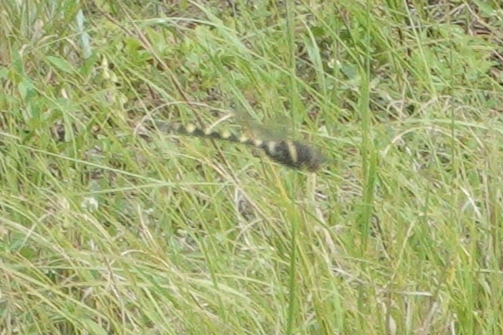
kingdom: Animalia
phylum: Arthropoda
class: Insecta
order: Odonata
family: Macromiidae
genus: Macromia
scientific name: Macromia illinoiensis
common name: Swift river cruiser
